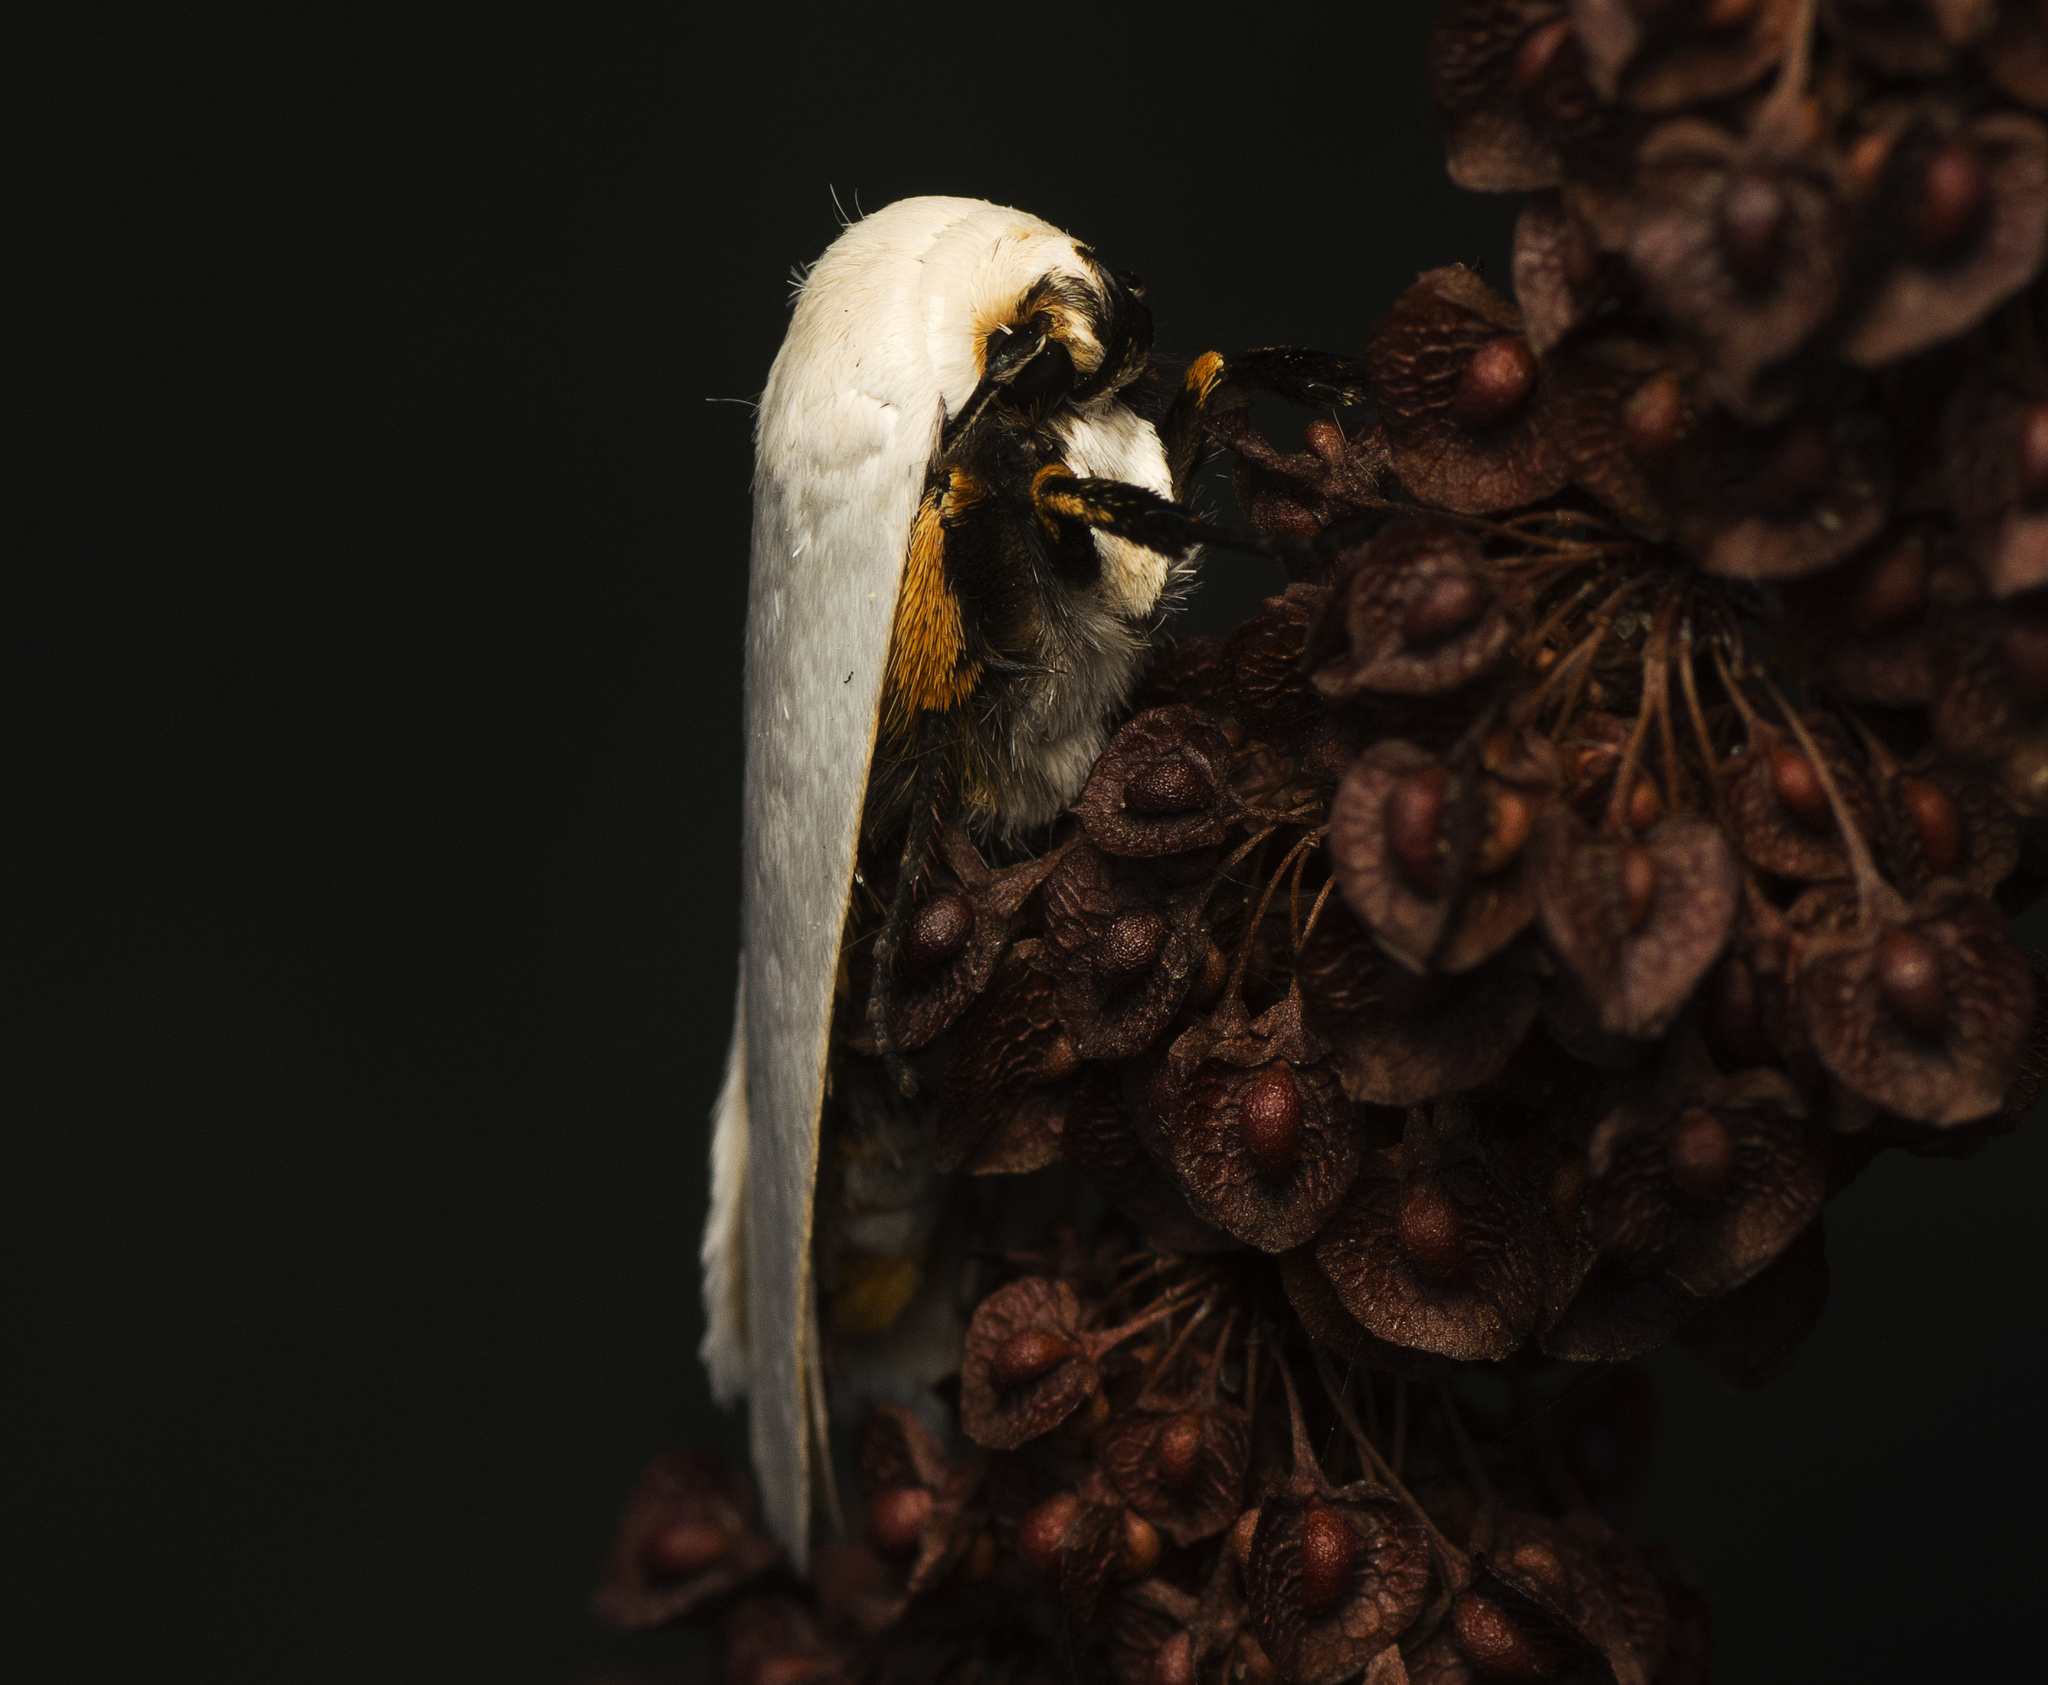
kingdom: Animalia
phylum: Arthropoda
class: Insecta
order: Lepidoptera
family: Xyloryctidae
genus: Maroga
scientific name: Maroga melanostigma
